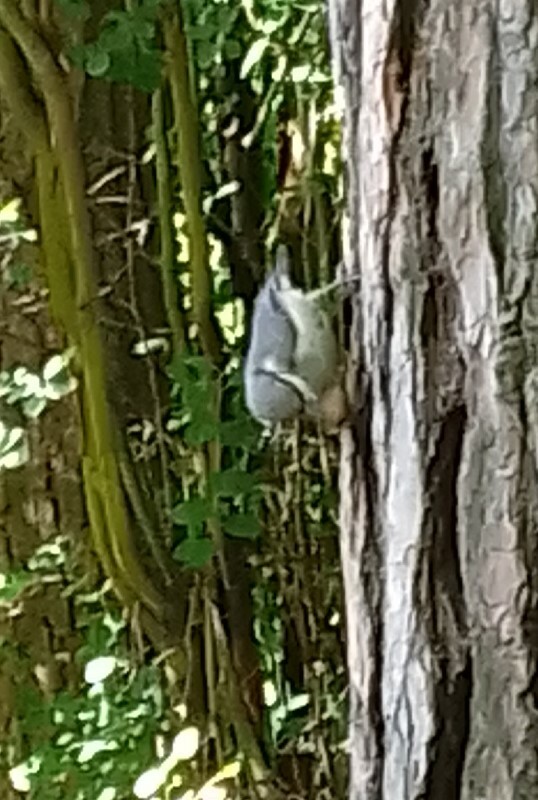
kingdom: Animalia
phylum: Chordata
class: Aves
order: Passeriformes
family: Sittidae
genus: Sitta
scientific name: Sitta europaea
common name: Eurasian nuthatch
